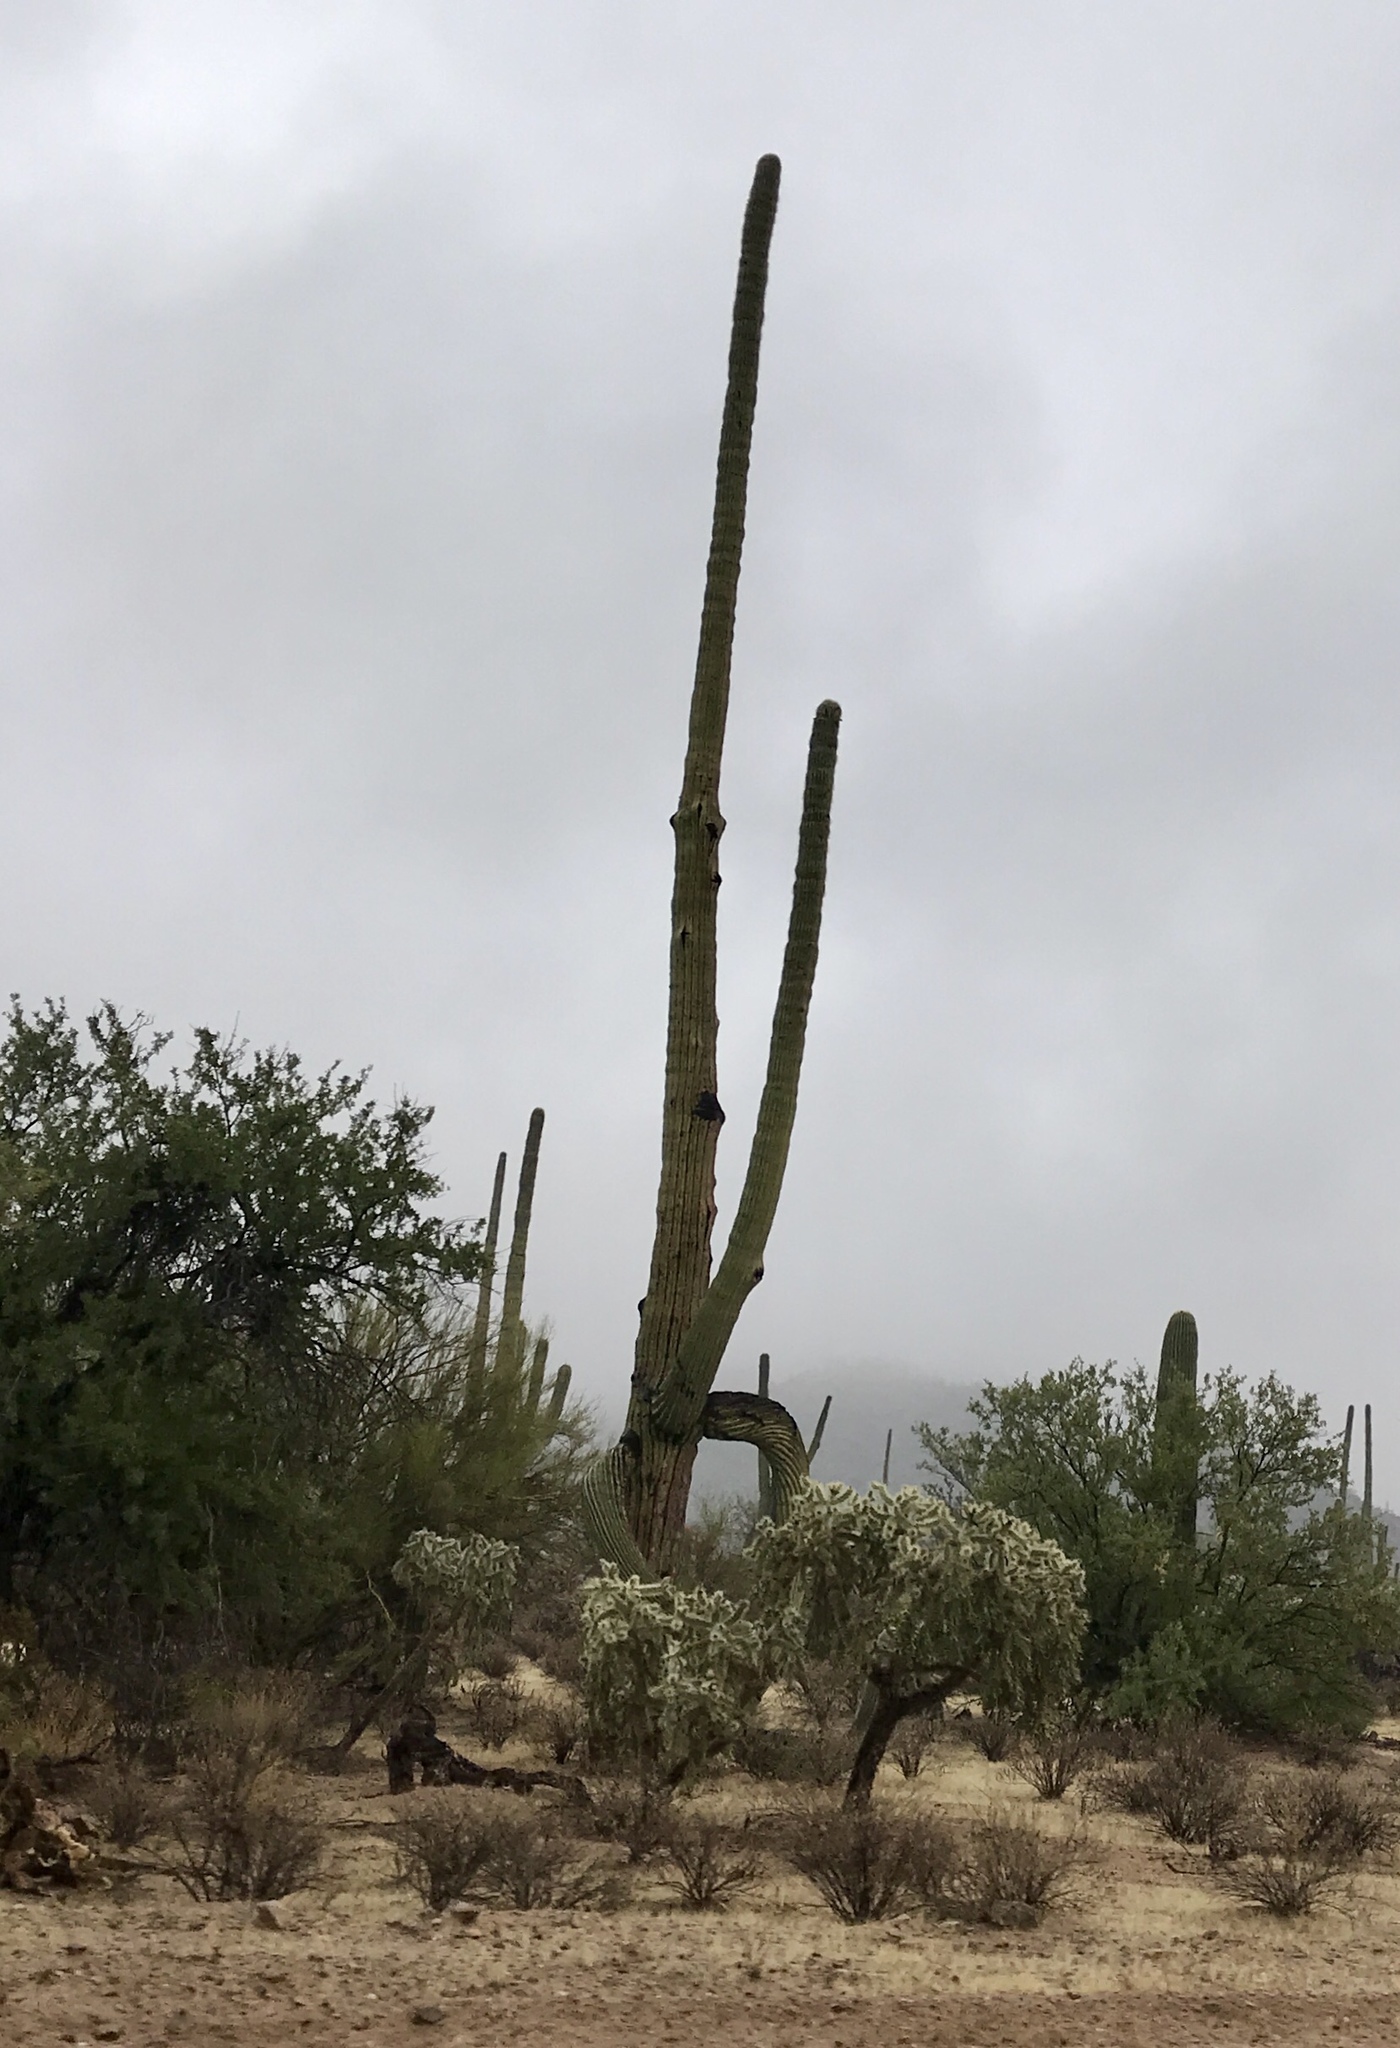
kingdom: Plantae
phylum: Tracheophyta
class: Magnoliopsida
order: Caryophyllales
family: Cactaceae
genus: Carnegiea
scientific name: Carnegiea gigantea
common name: Saguaro
